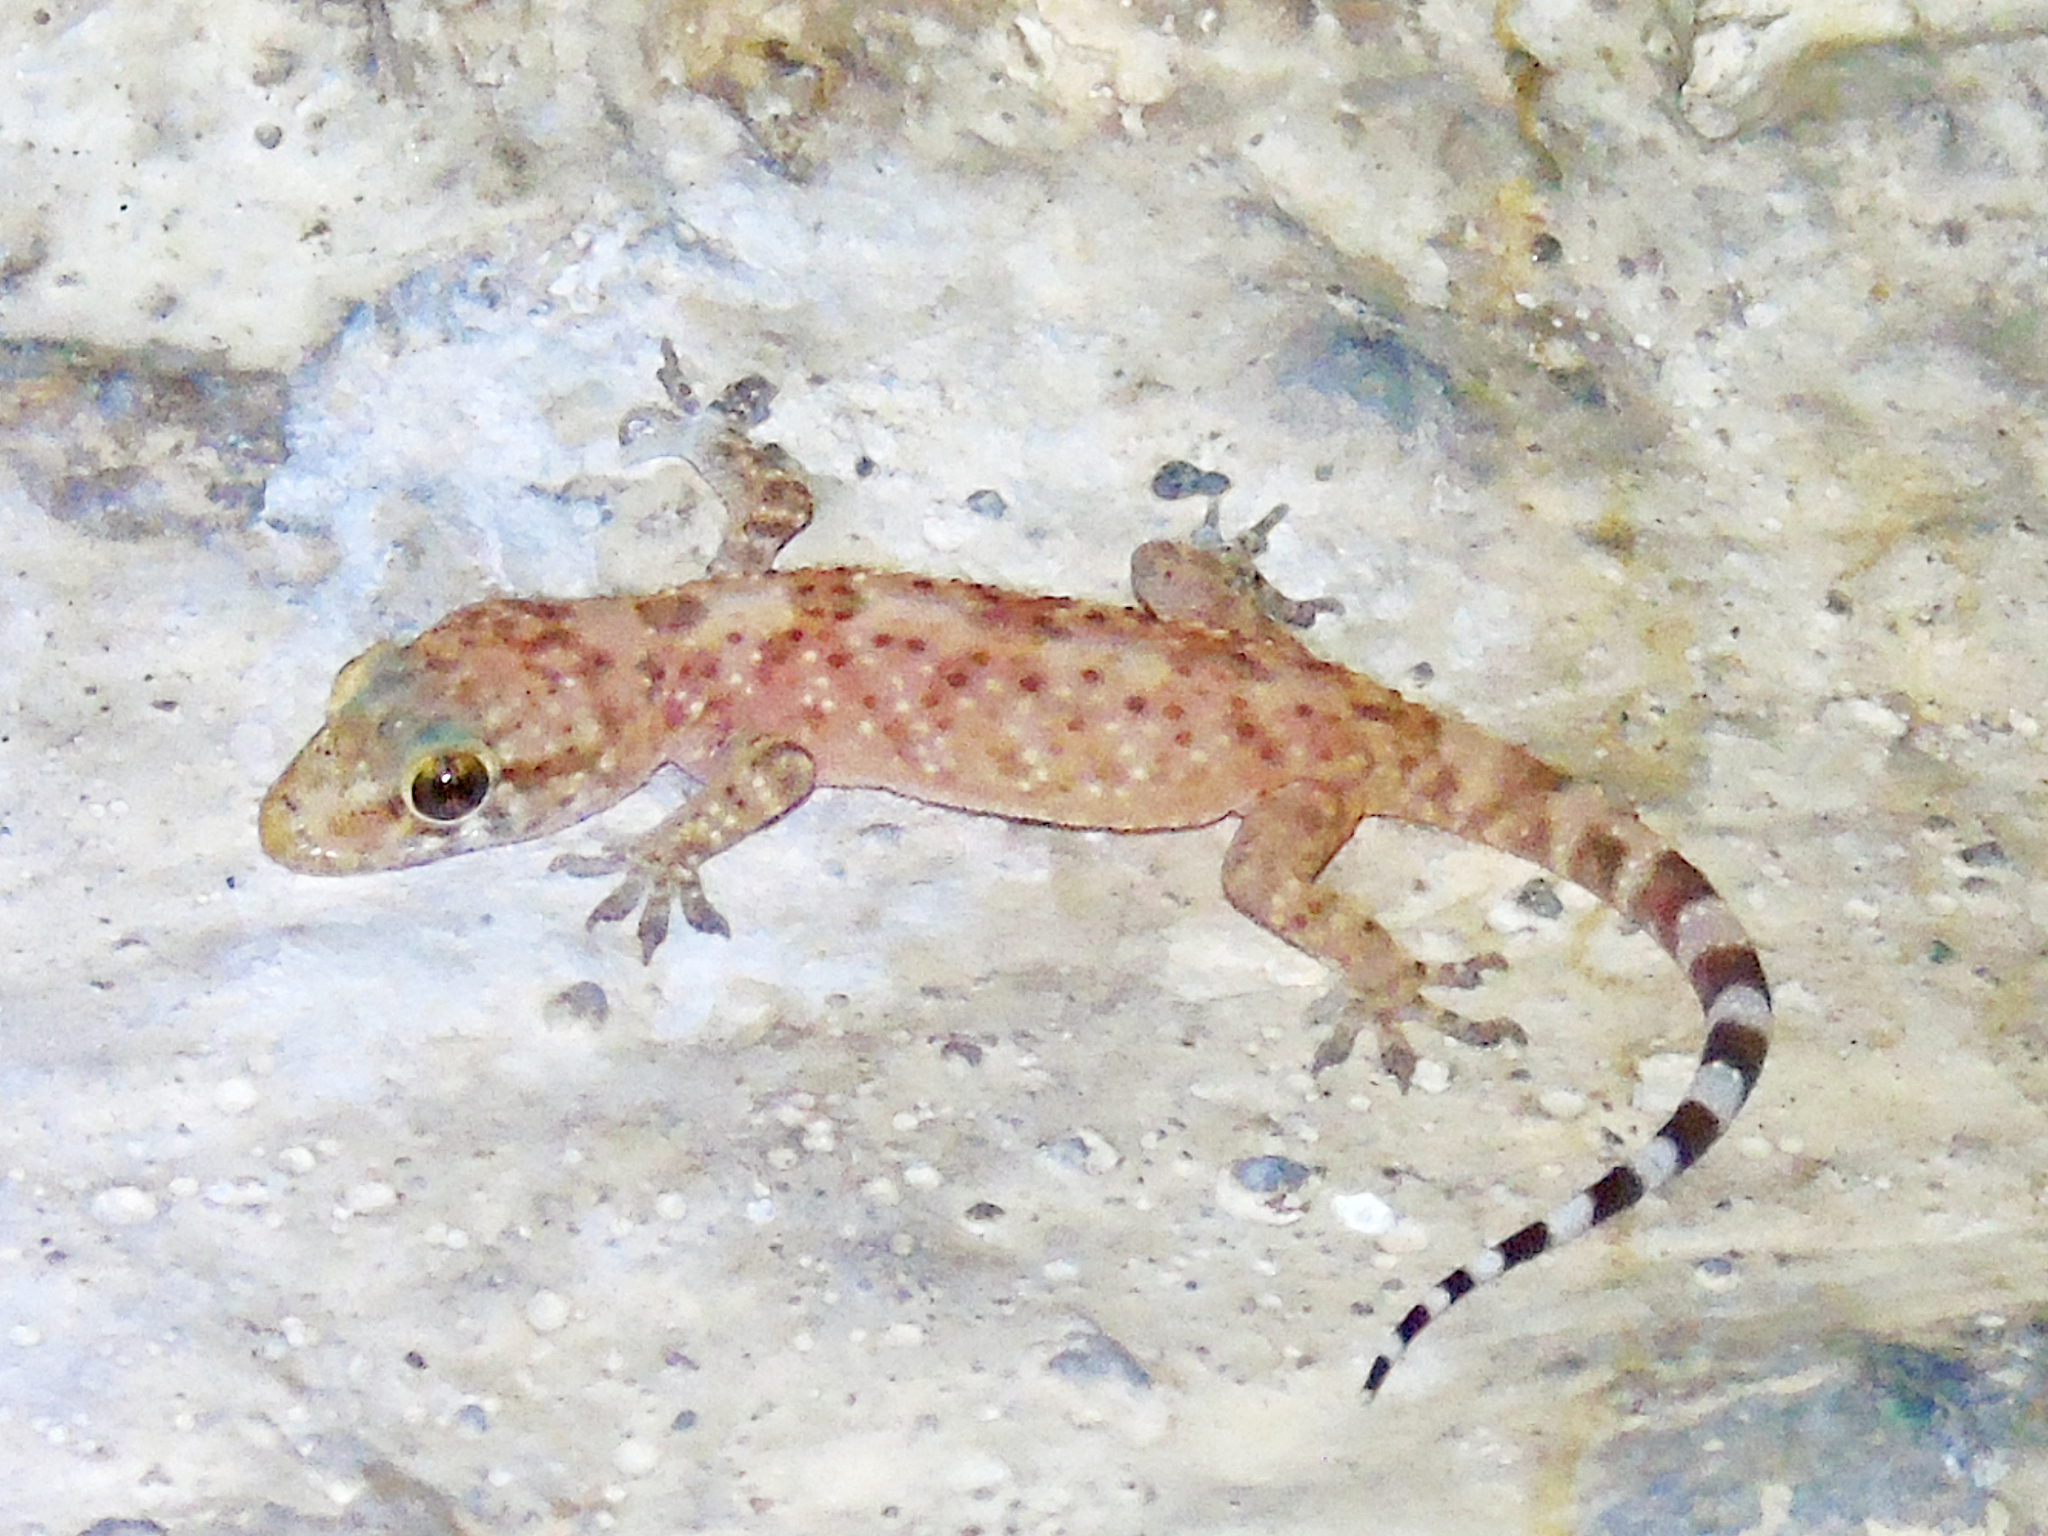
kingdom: Animalia
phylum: Chordata
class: Squamata
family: Gekkonidae
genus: Hemidactylus
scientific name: Hemidactylus turcicus
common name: Turkish gecko
